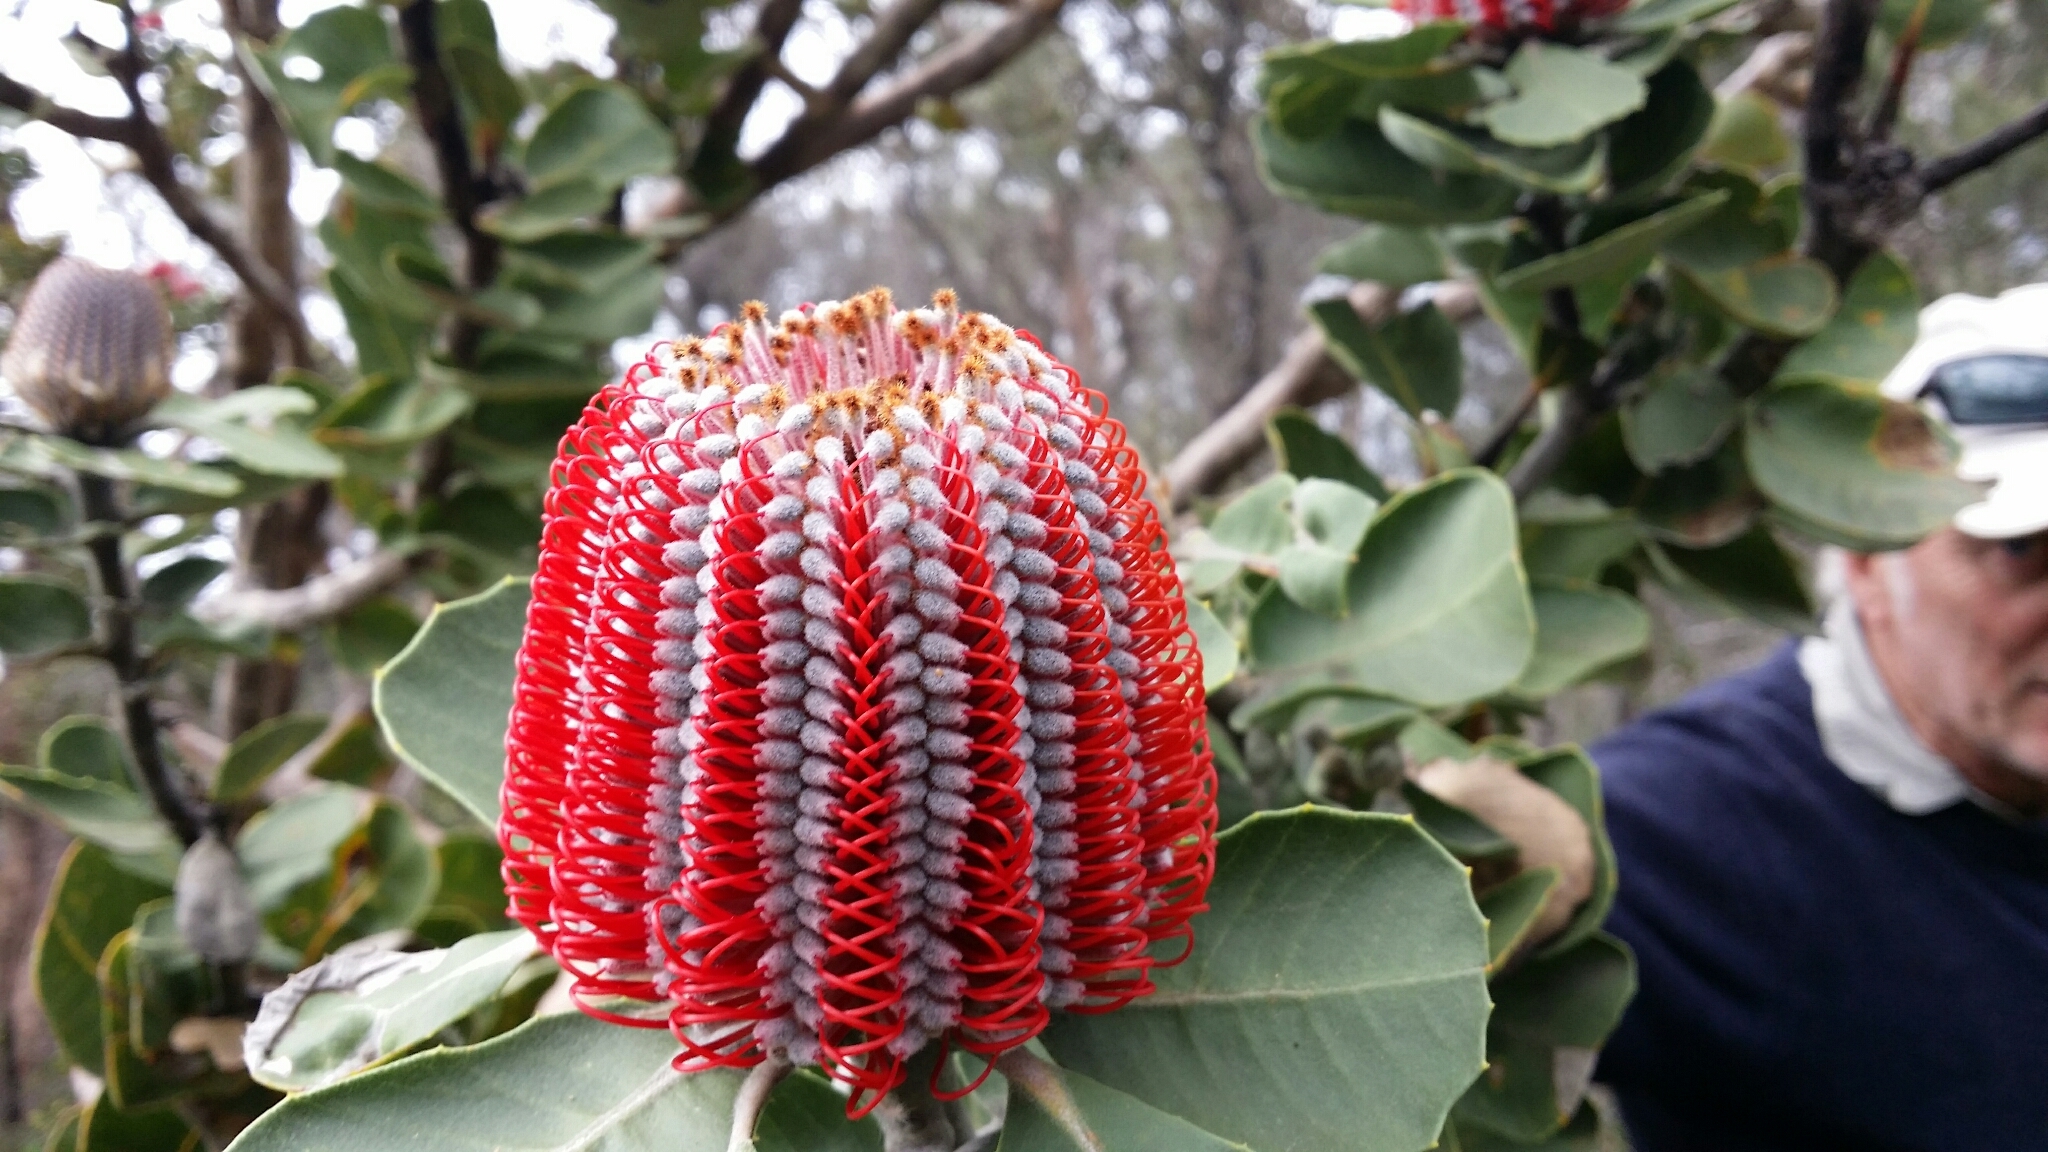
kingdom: Plantae
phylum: Tracheophyta
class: Magnoliopsida
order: Proteales
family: Proteaceae
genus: Banksia
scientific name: Banksia coccinea
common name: Scarlet banksia
